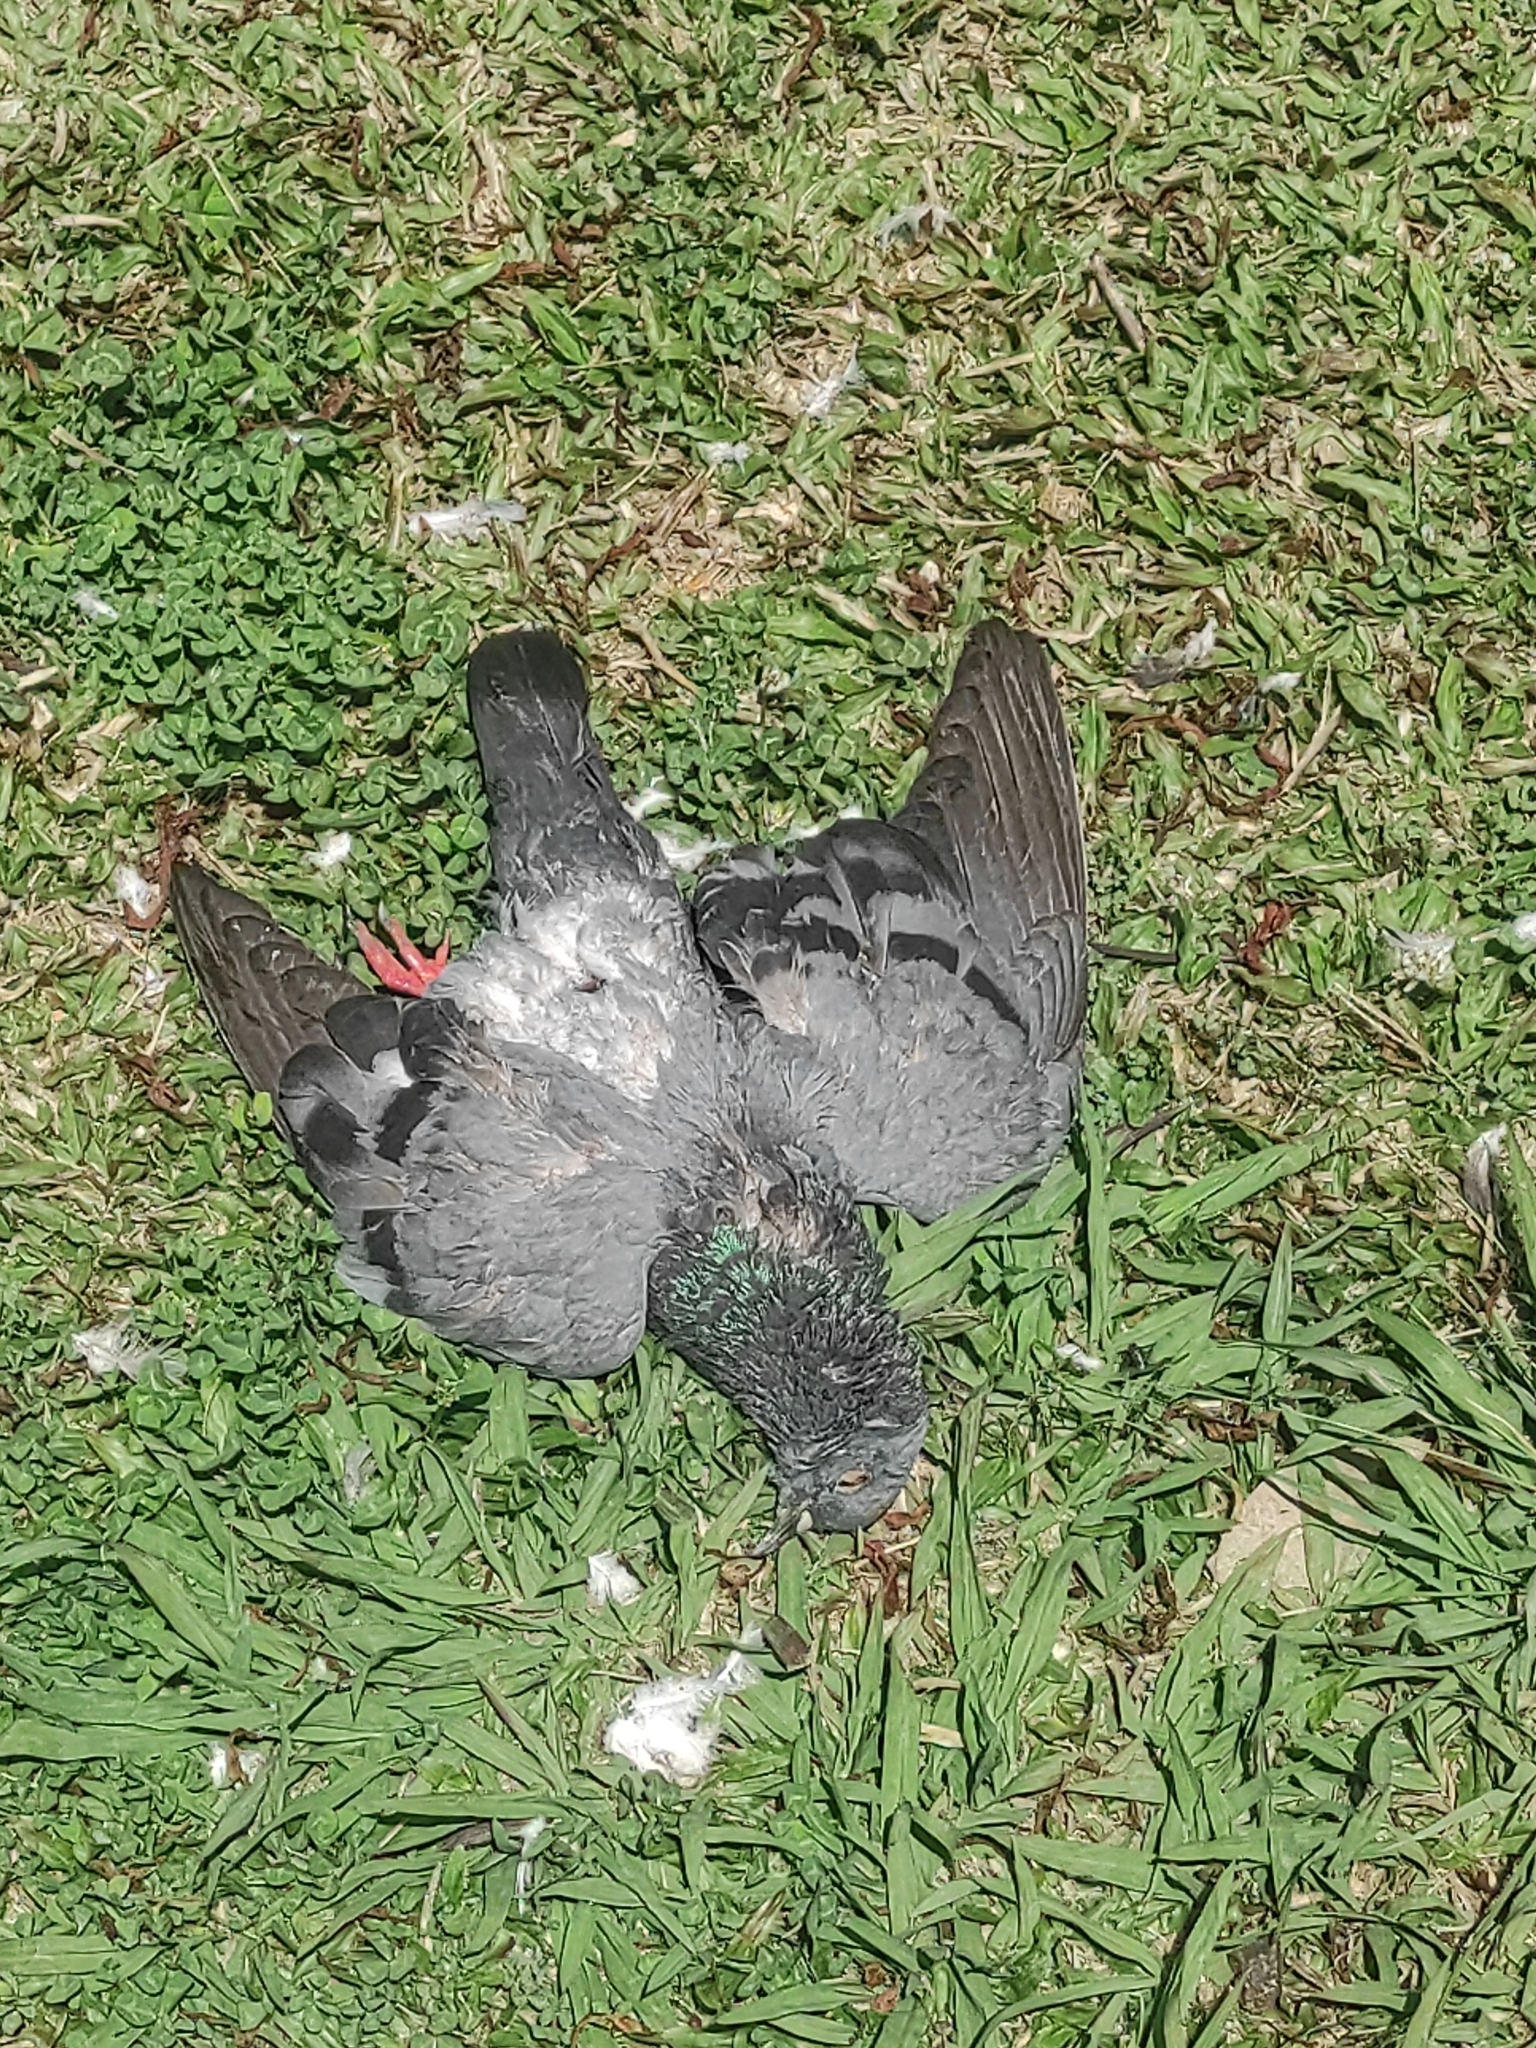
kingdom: Animalia
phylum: Chordata
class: Aves
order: Columbiformes
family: Columbidae
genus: Columba
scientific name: Columba livia
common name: Rock pigeon
